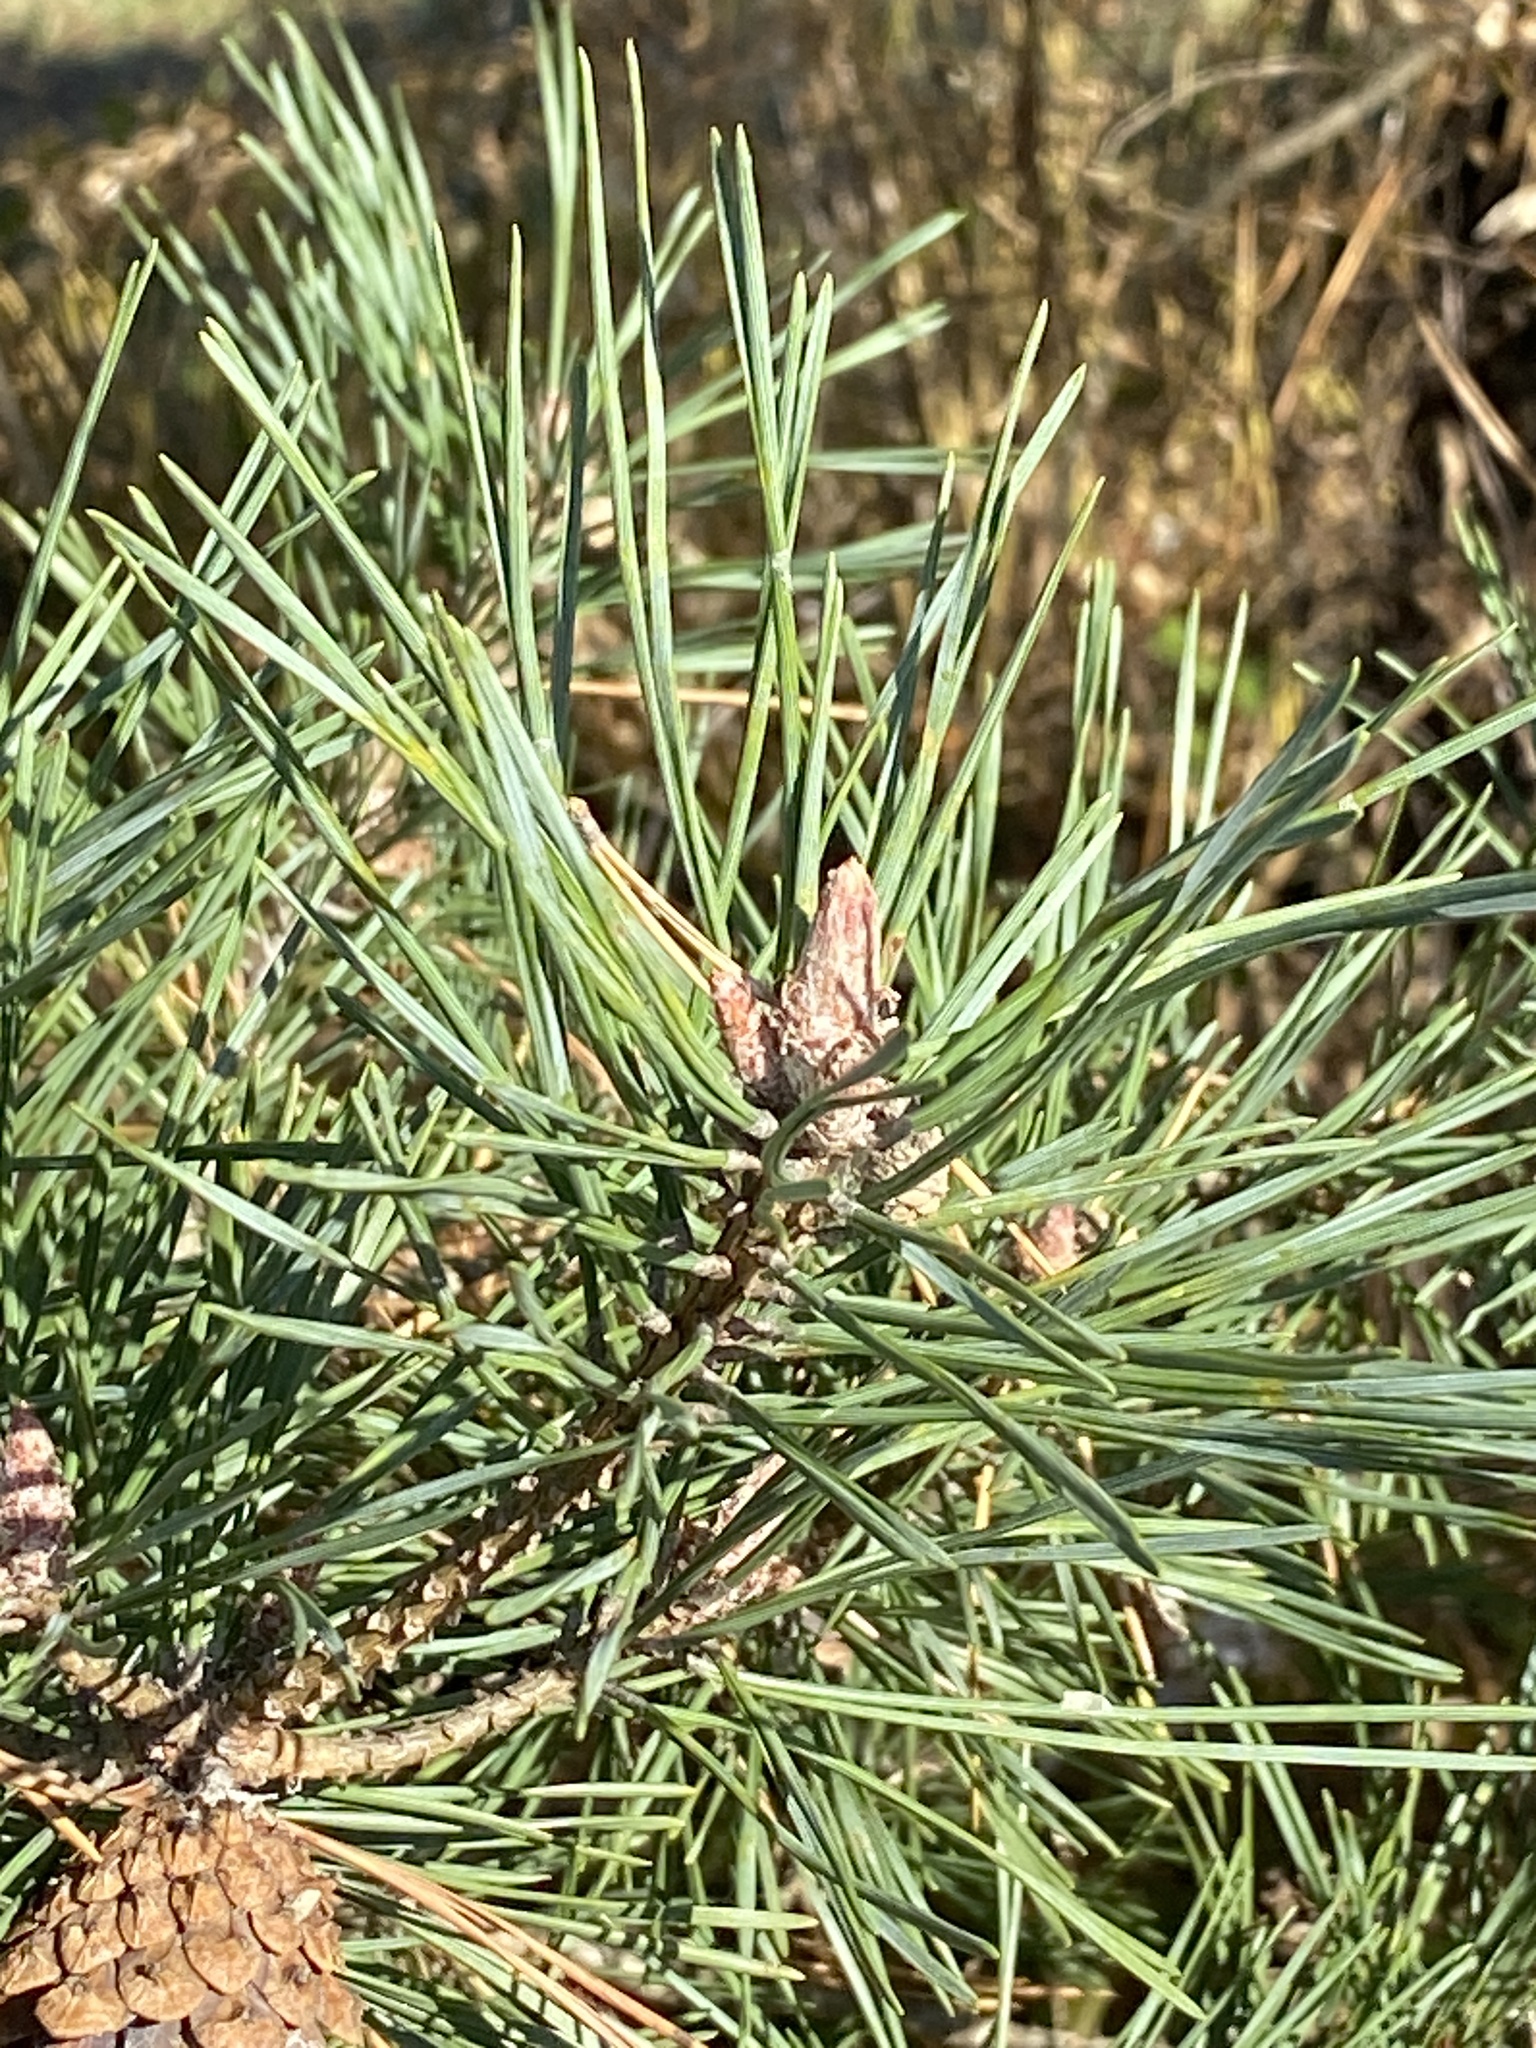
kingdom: Plantae
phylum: Tracheophyta
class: Pinopsida
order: Pinales
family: Pinaceae
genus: Pinus
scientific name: Pinus sylvestris
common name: Scots pine
